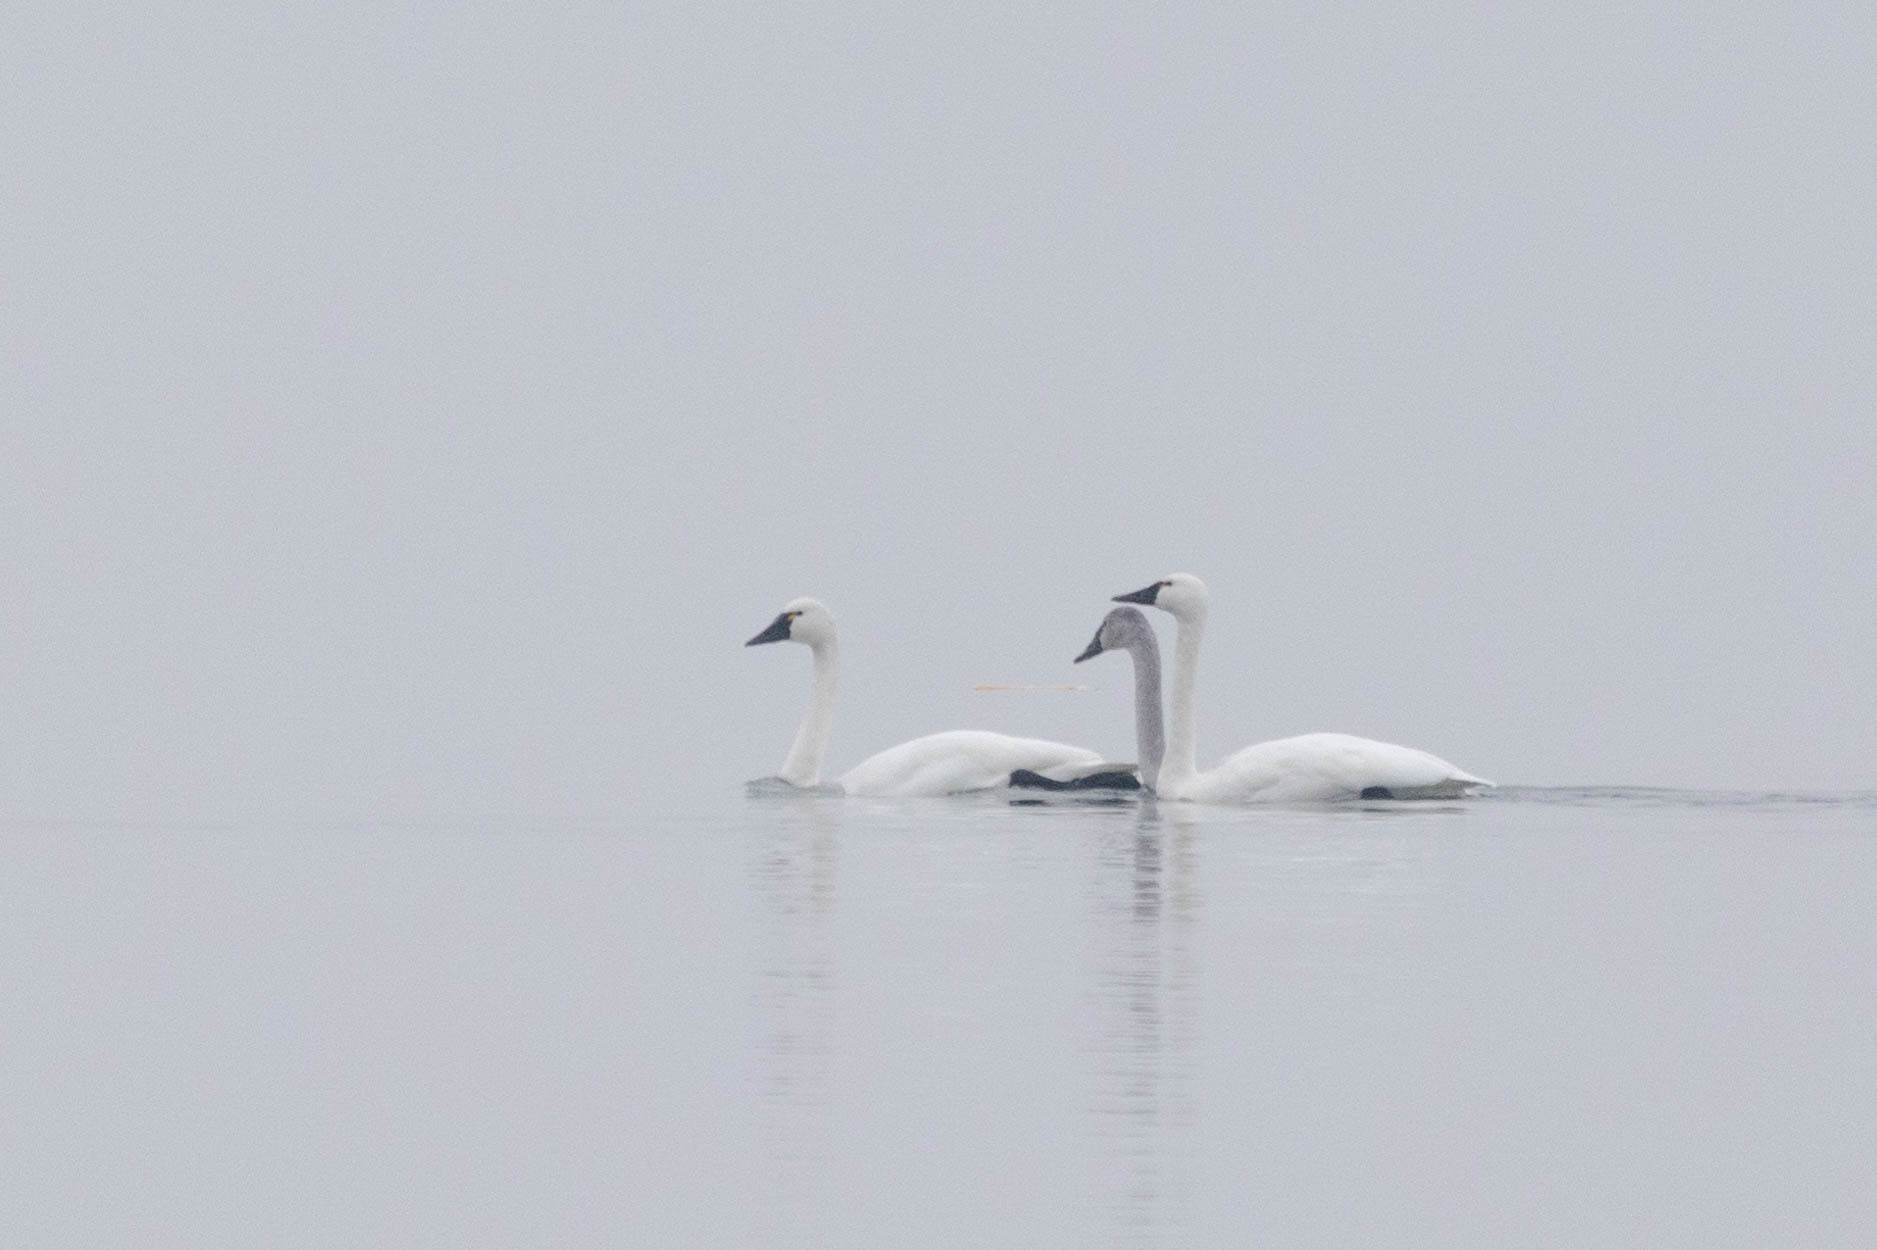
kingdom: Animalia
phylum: Chordata
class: Aves
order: Anseriformes
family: Anatidae
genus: Cygnus
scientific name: Cygnus columbianus
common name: Tundra swan
